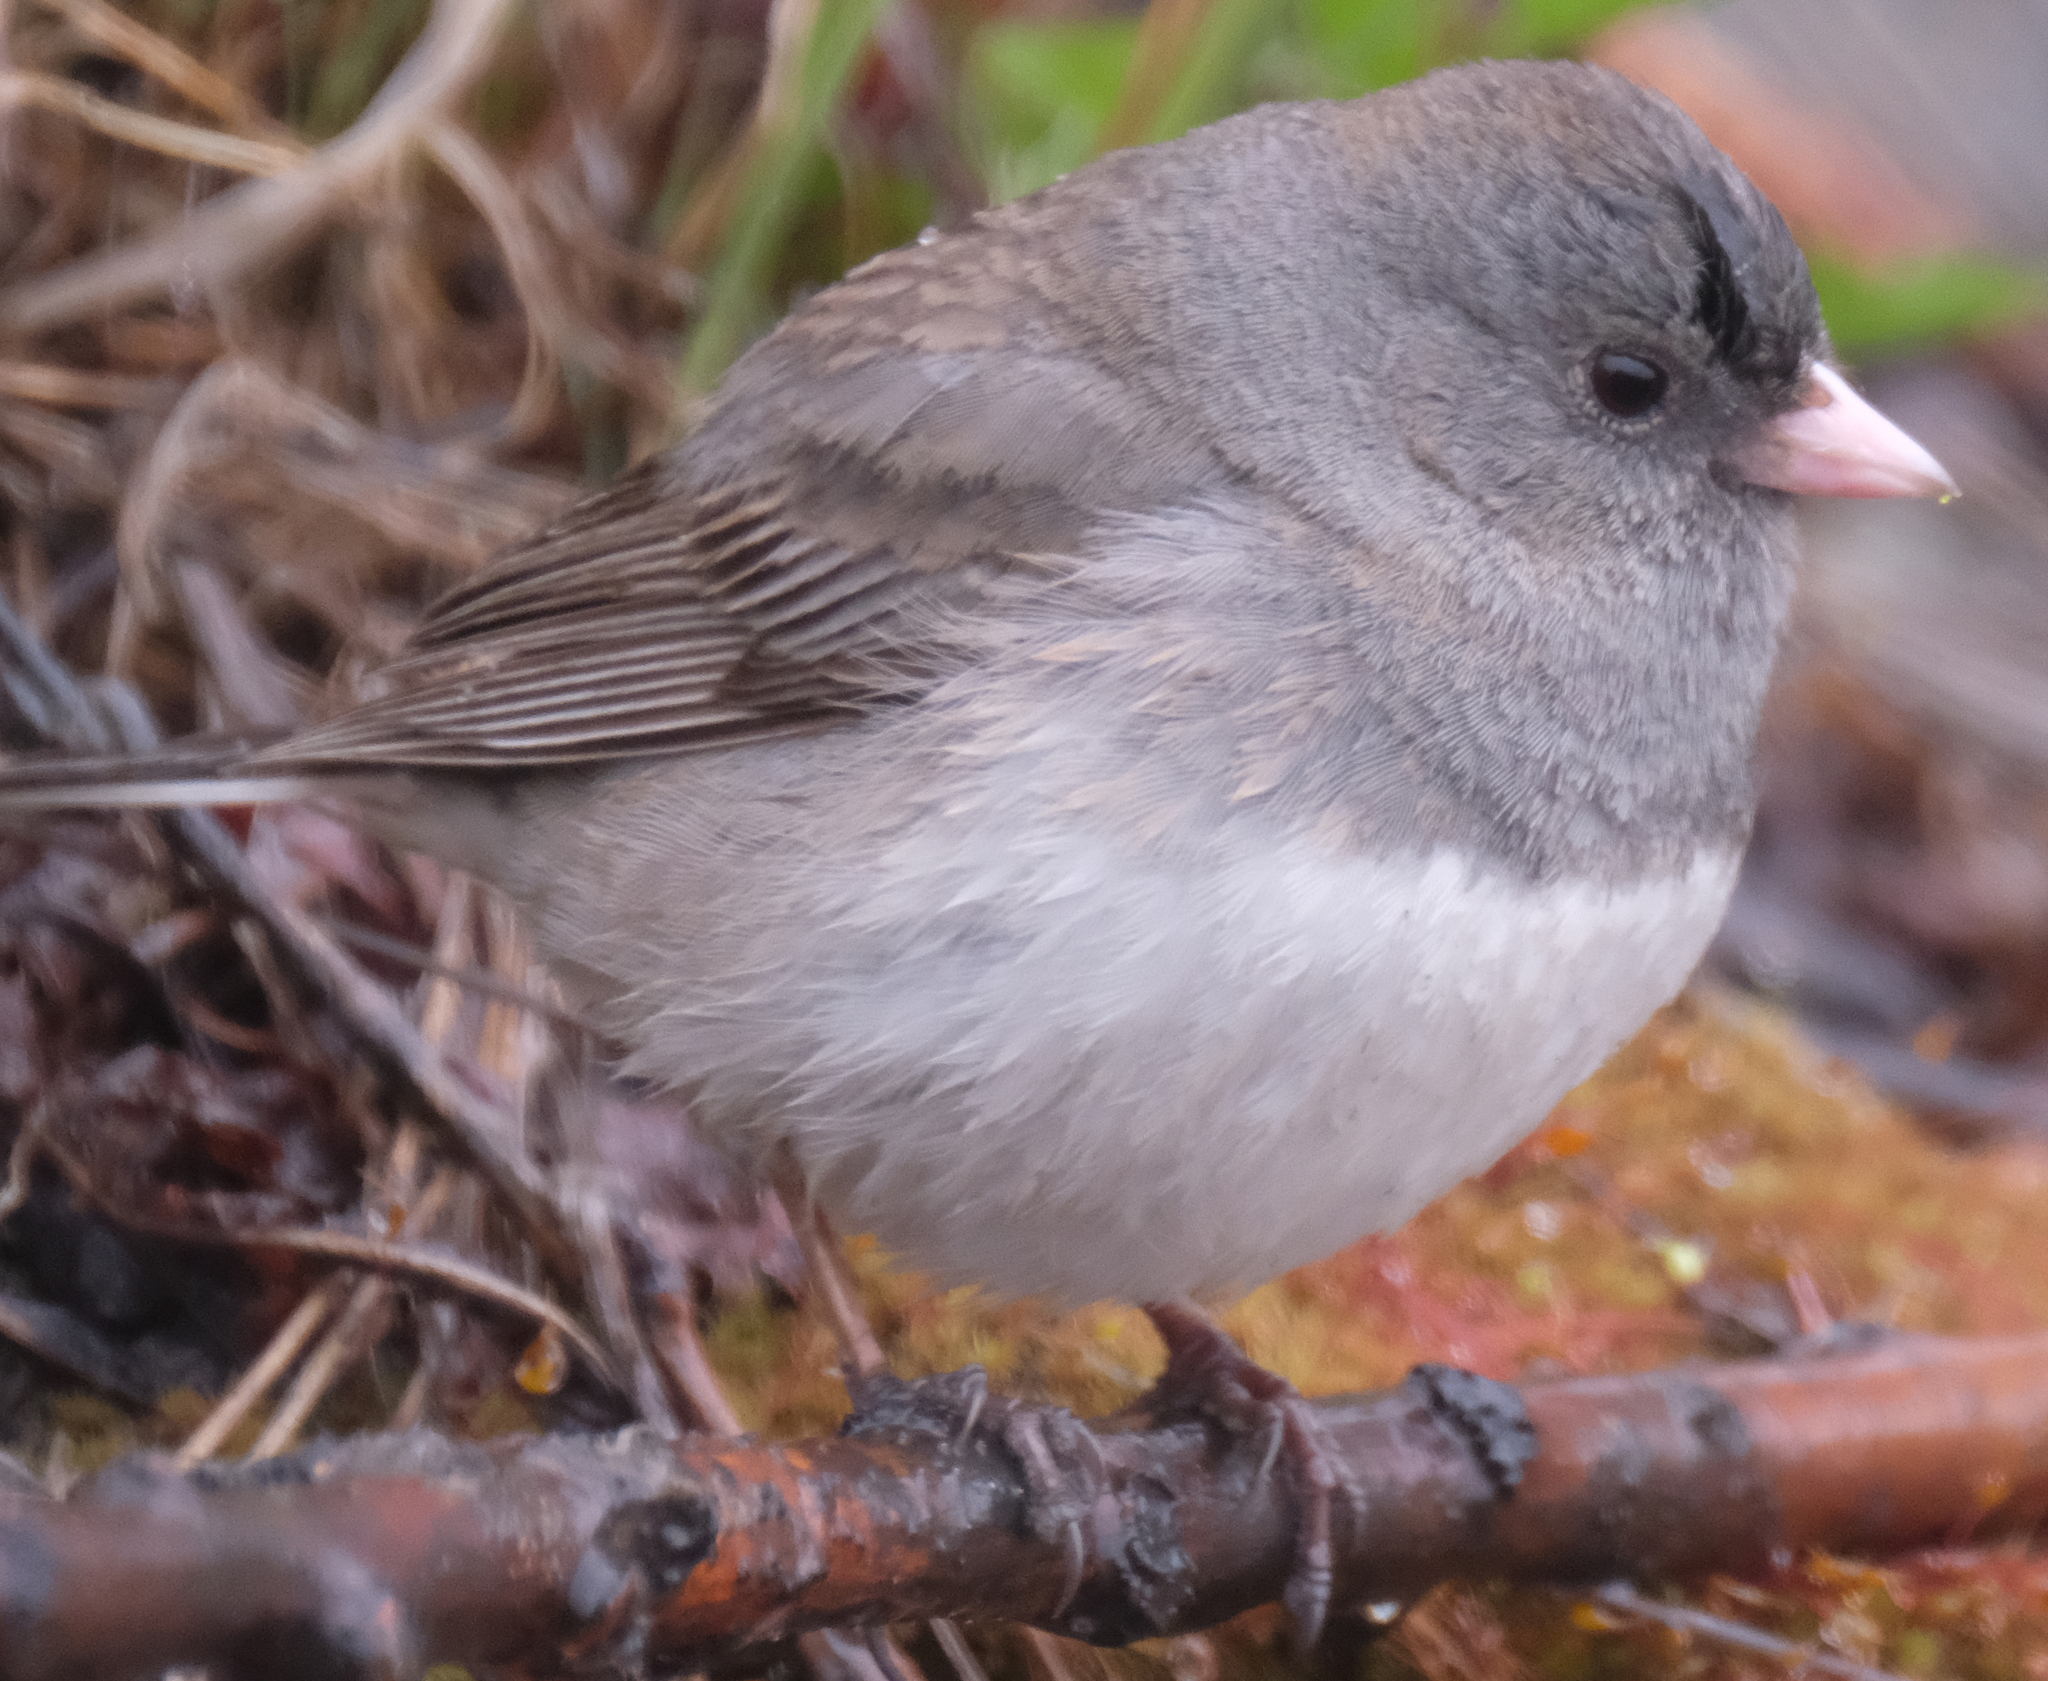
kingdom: Animalia
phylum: Chordata
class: Aves
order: Passeriformes
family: Passerellidae
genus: Junco
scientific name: Junco hyemalis
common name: Dark-eyed junco
